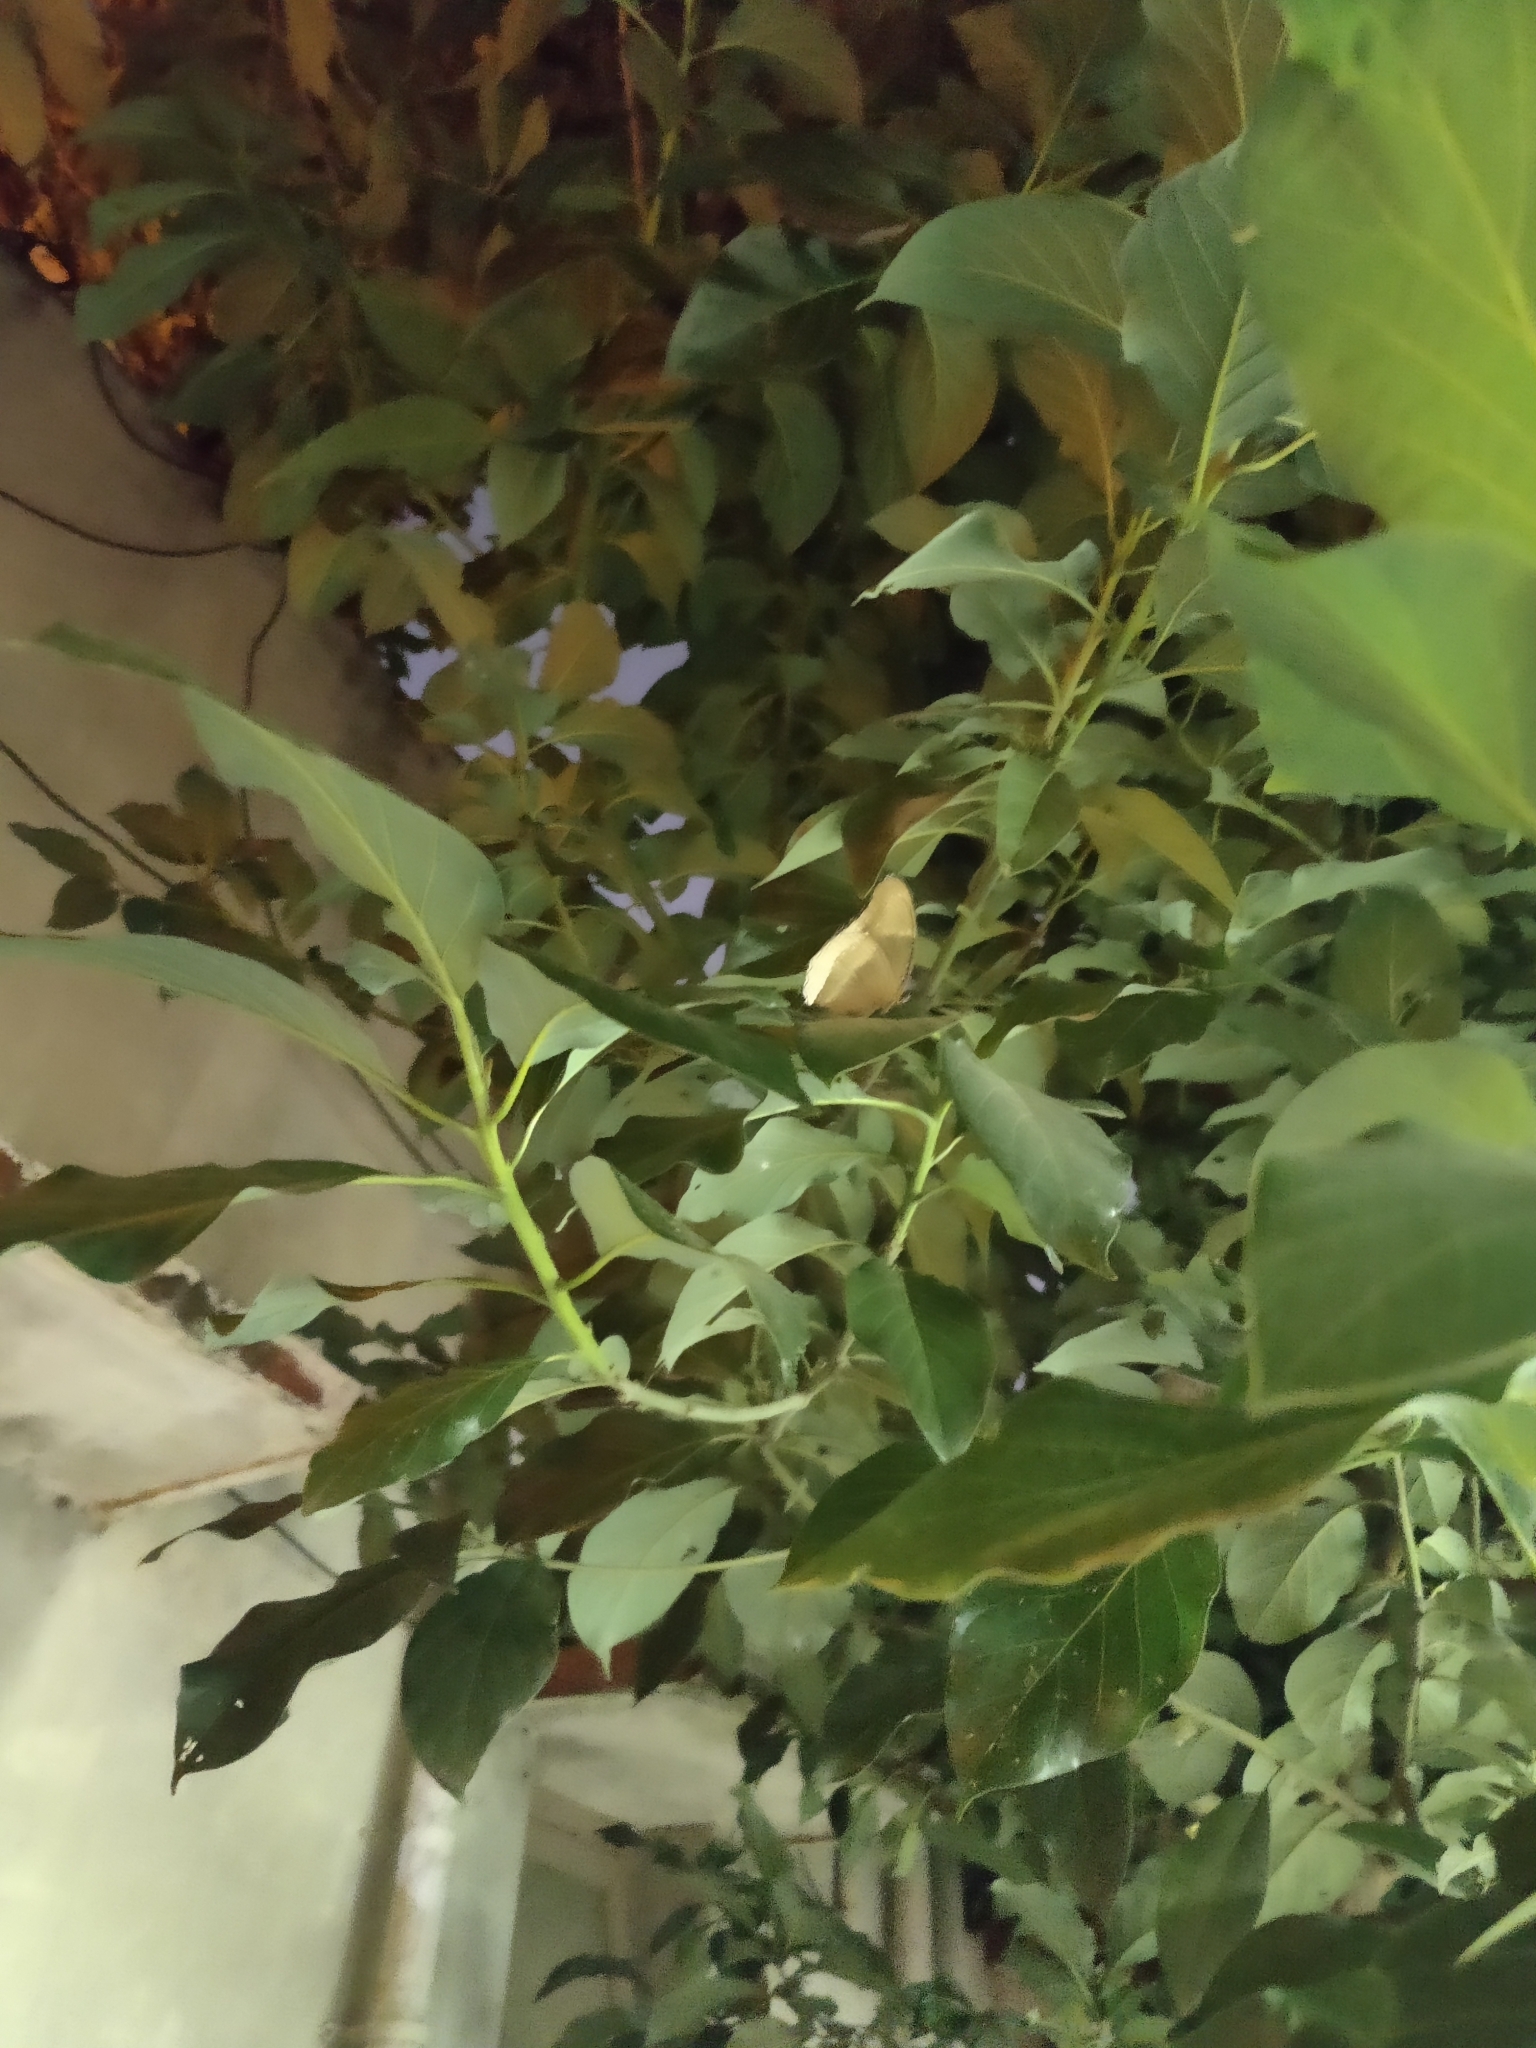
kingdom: Animalia
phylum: Arthropoda
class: Insecta
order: Lepidoptera
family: Nymphalidae
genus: Hypolimnas
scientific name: Hypolimnas bolina
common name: Great eggfly
